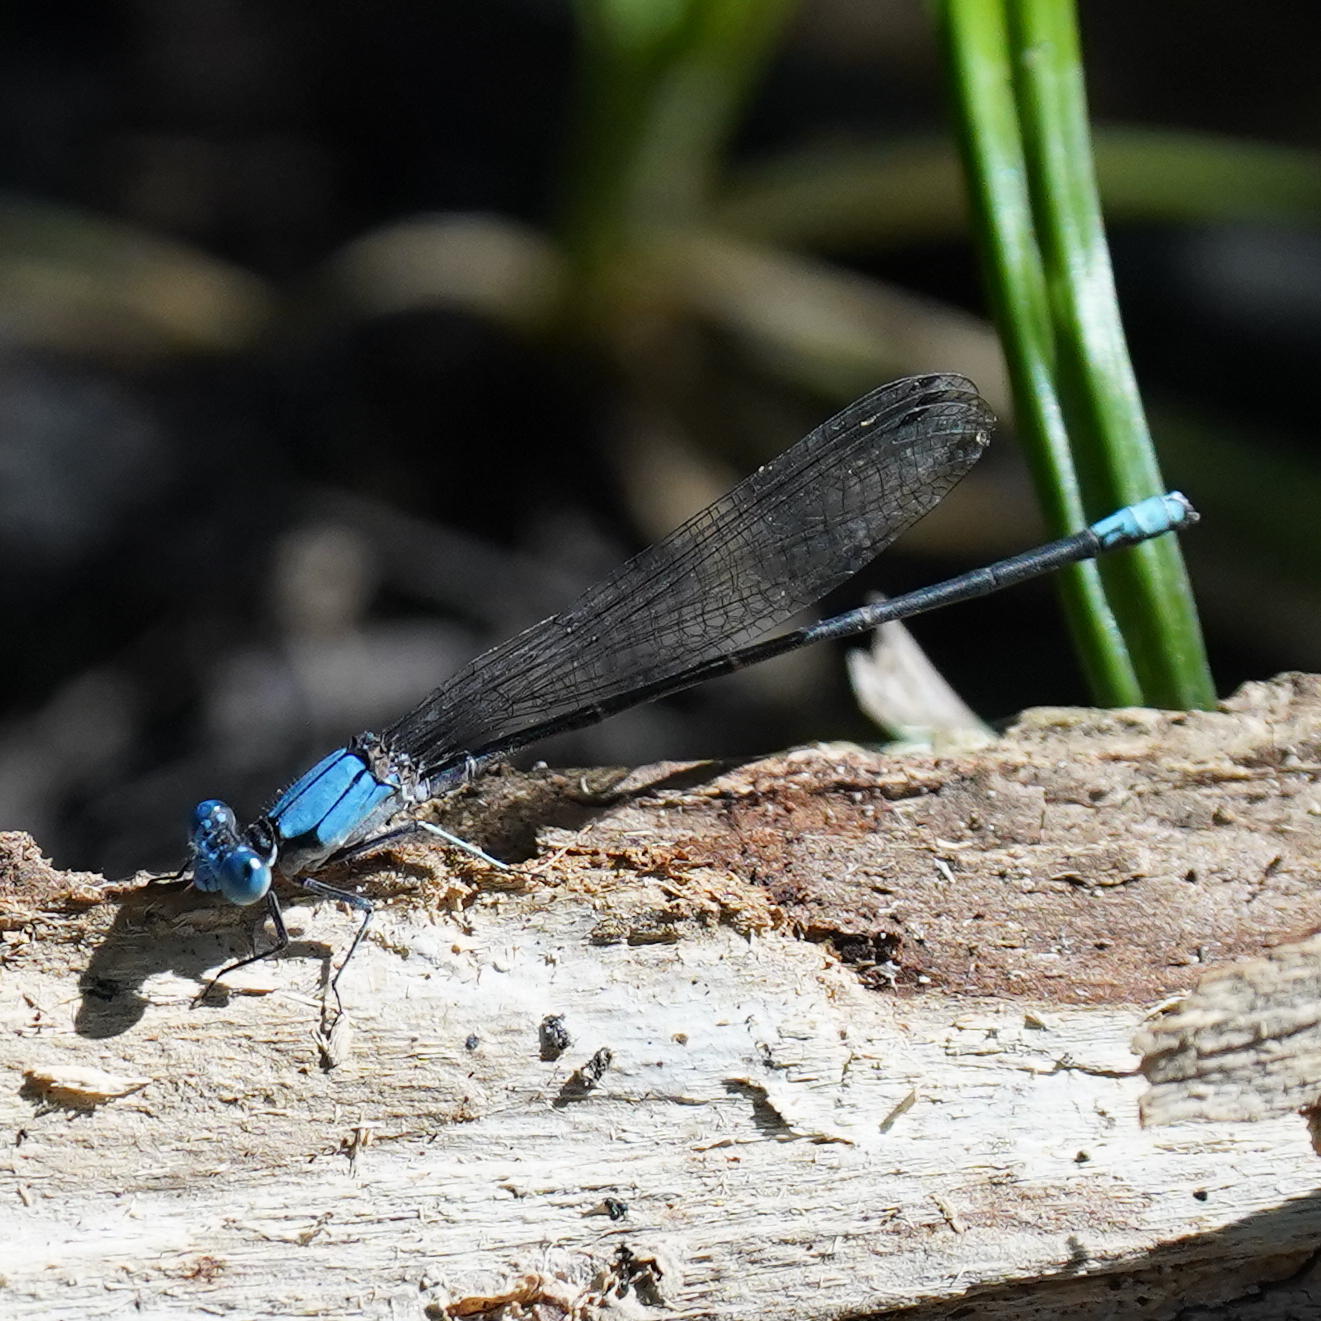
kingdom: Animalia
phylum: Arthropoda
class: Insecta
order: Odonata
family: Coenagrionidae
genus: Argia
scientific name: Argia apicalis
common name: Blue-fronted dancer
